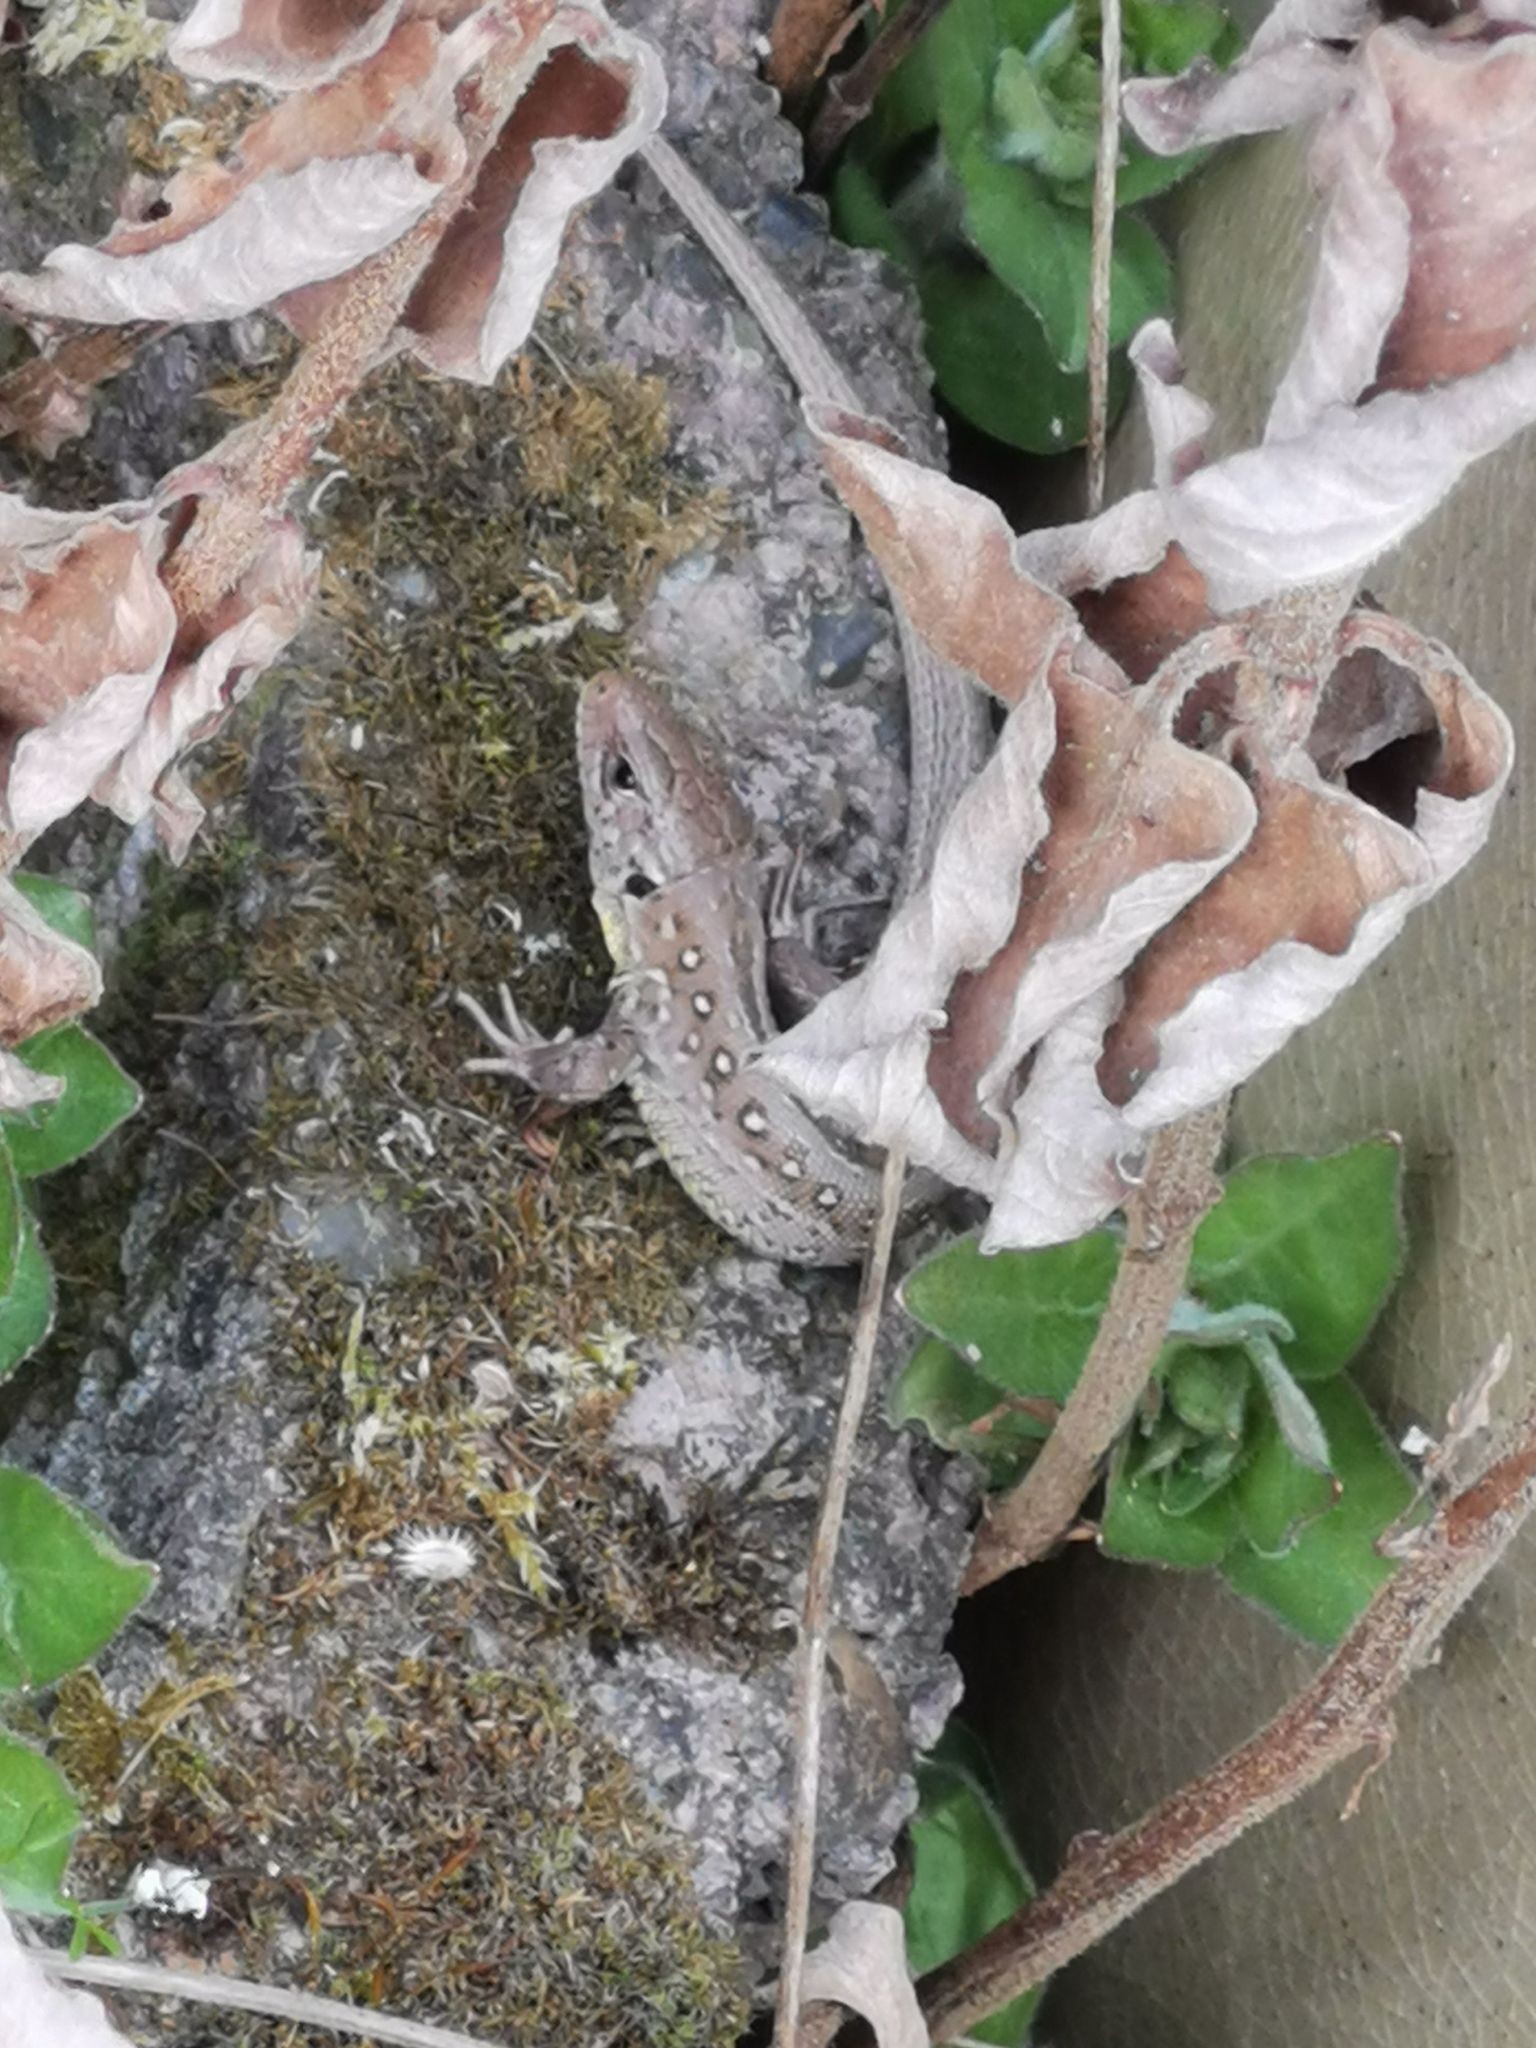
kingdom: Animalia
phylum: Chordata
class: Squamata
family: Lacertidae
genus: Lacerta
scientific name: Lacerta agilis
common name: Sand lizard
